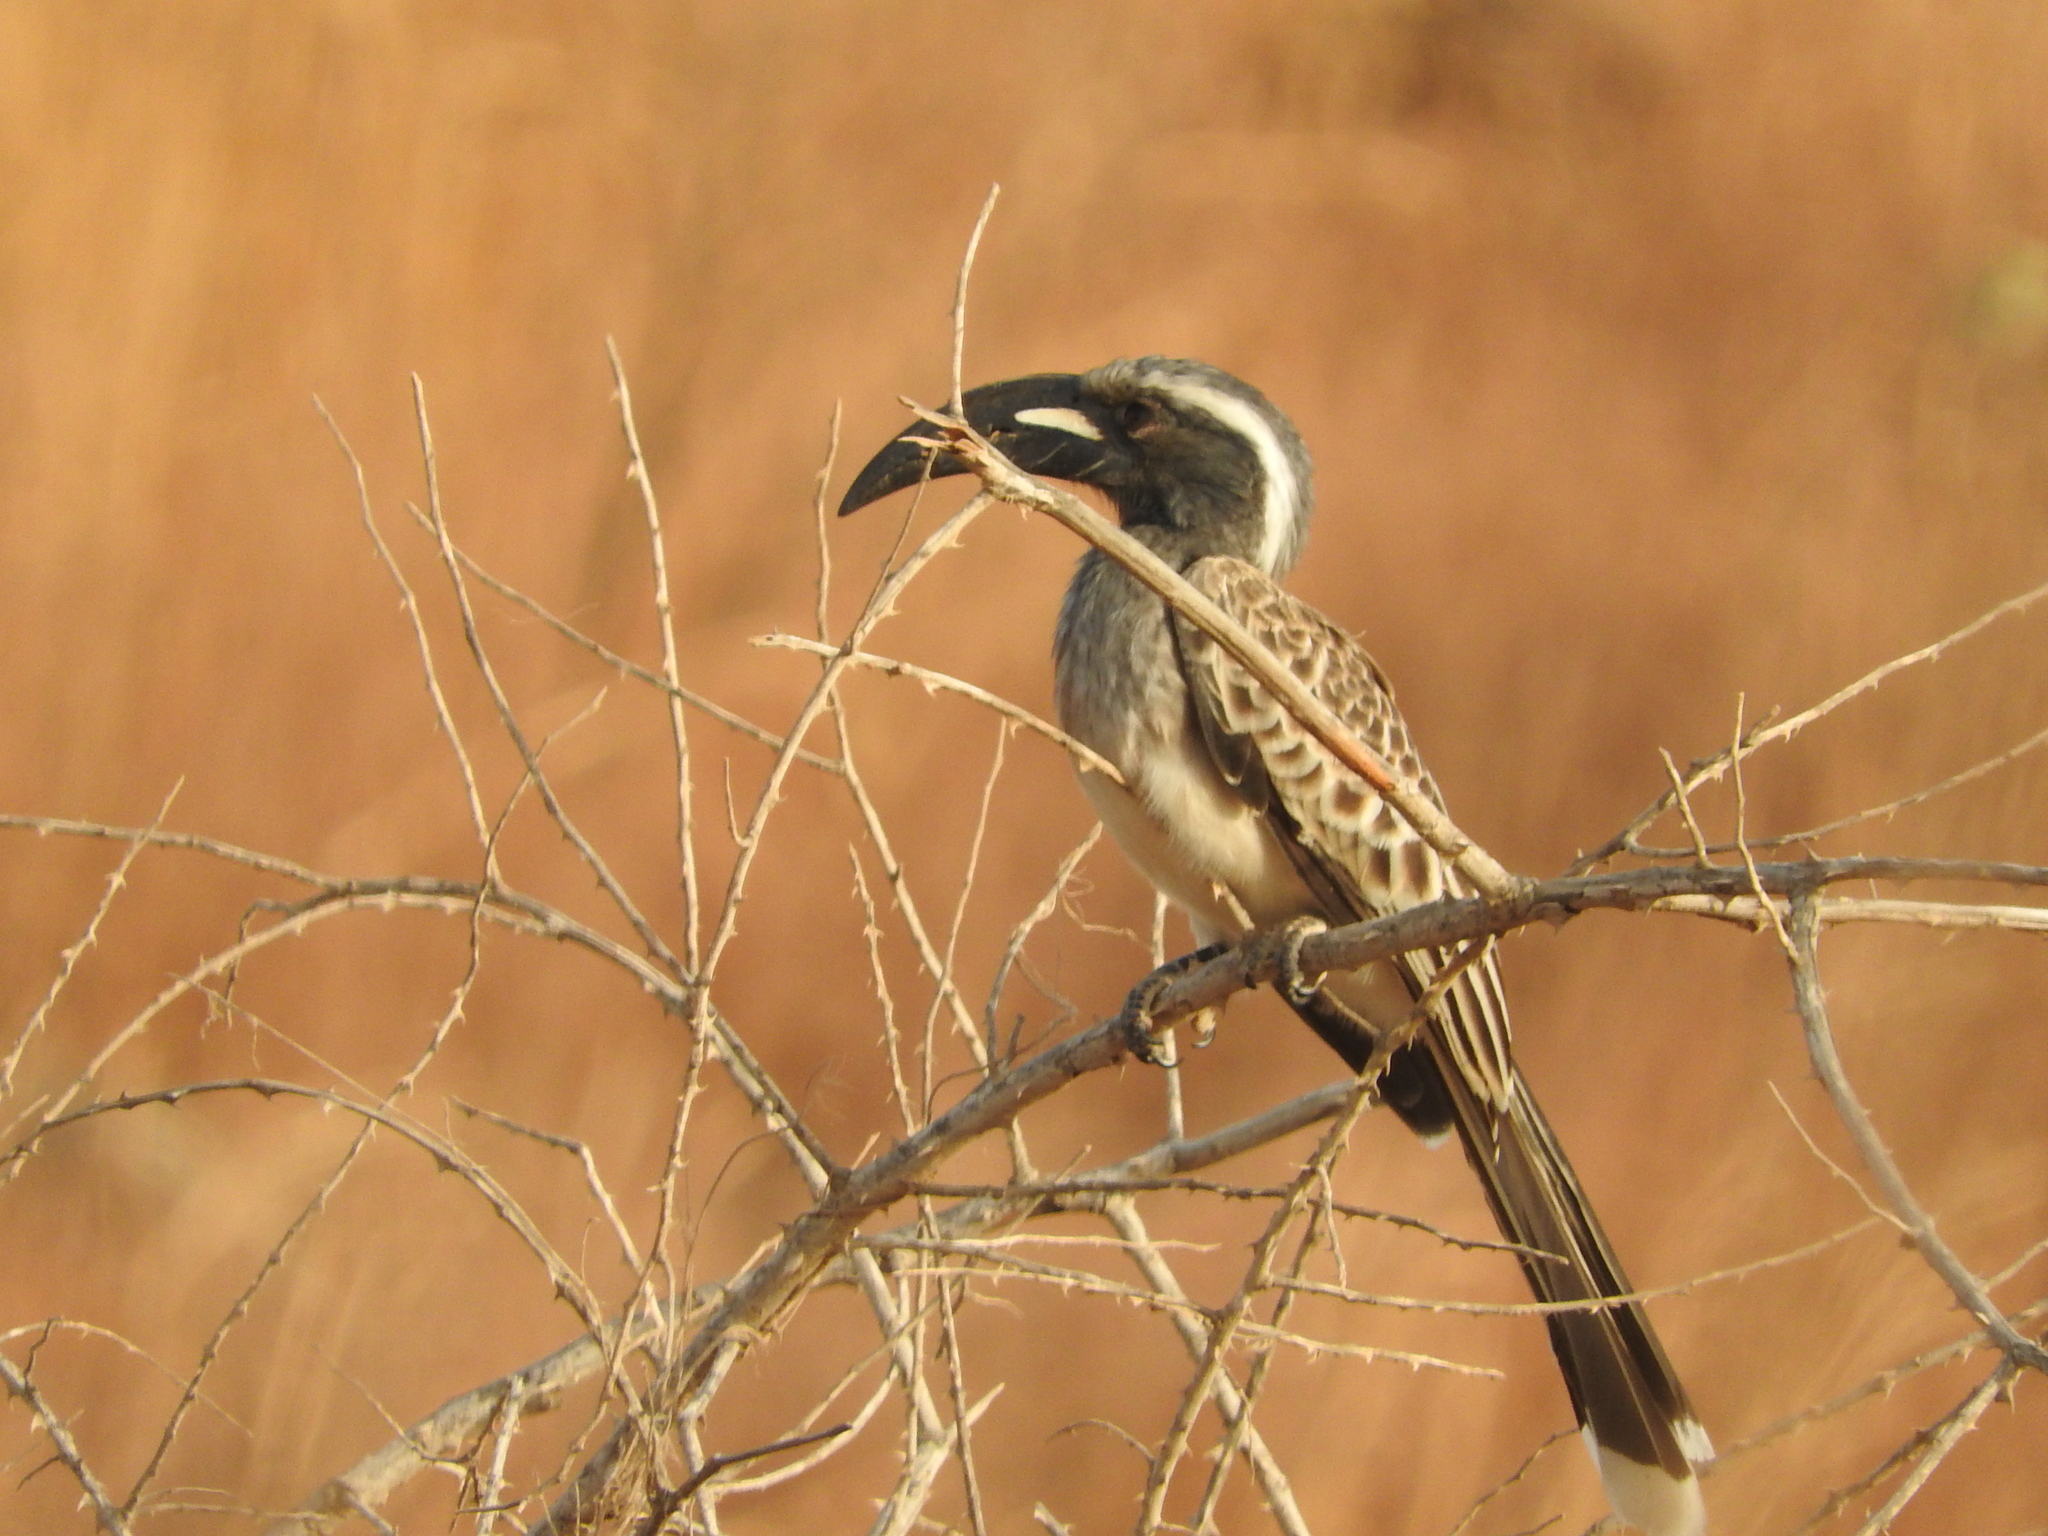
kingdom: Animalia
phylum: Chordata
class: Aves
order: Bucerotiformes
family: Bucerotidae
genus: Lophoceros
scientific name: Lophoceros nasutus
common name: African grey hornbill
